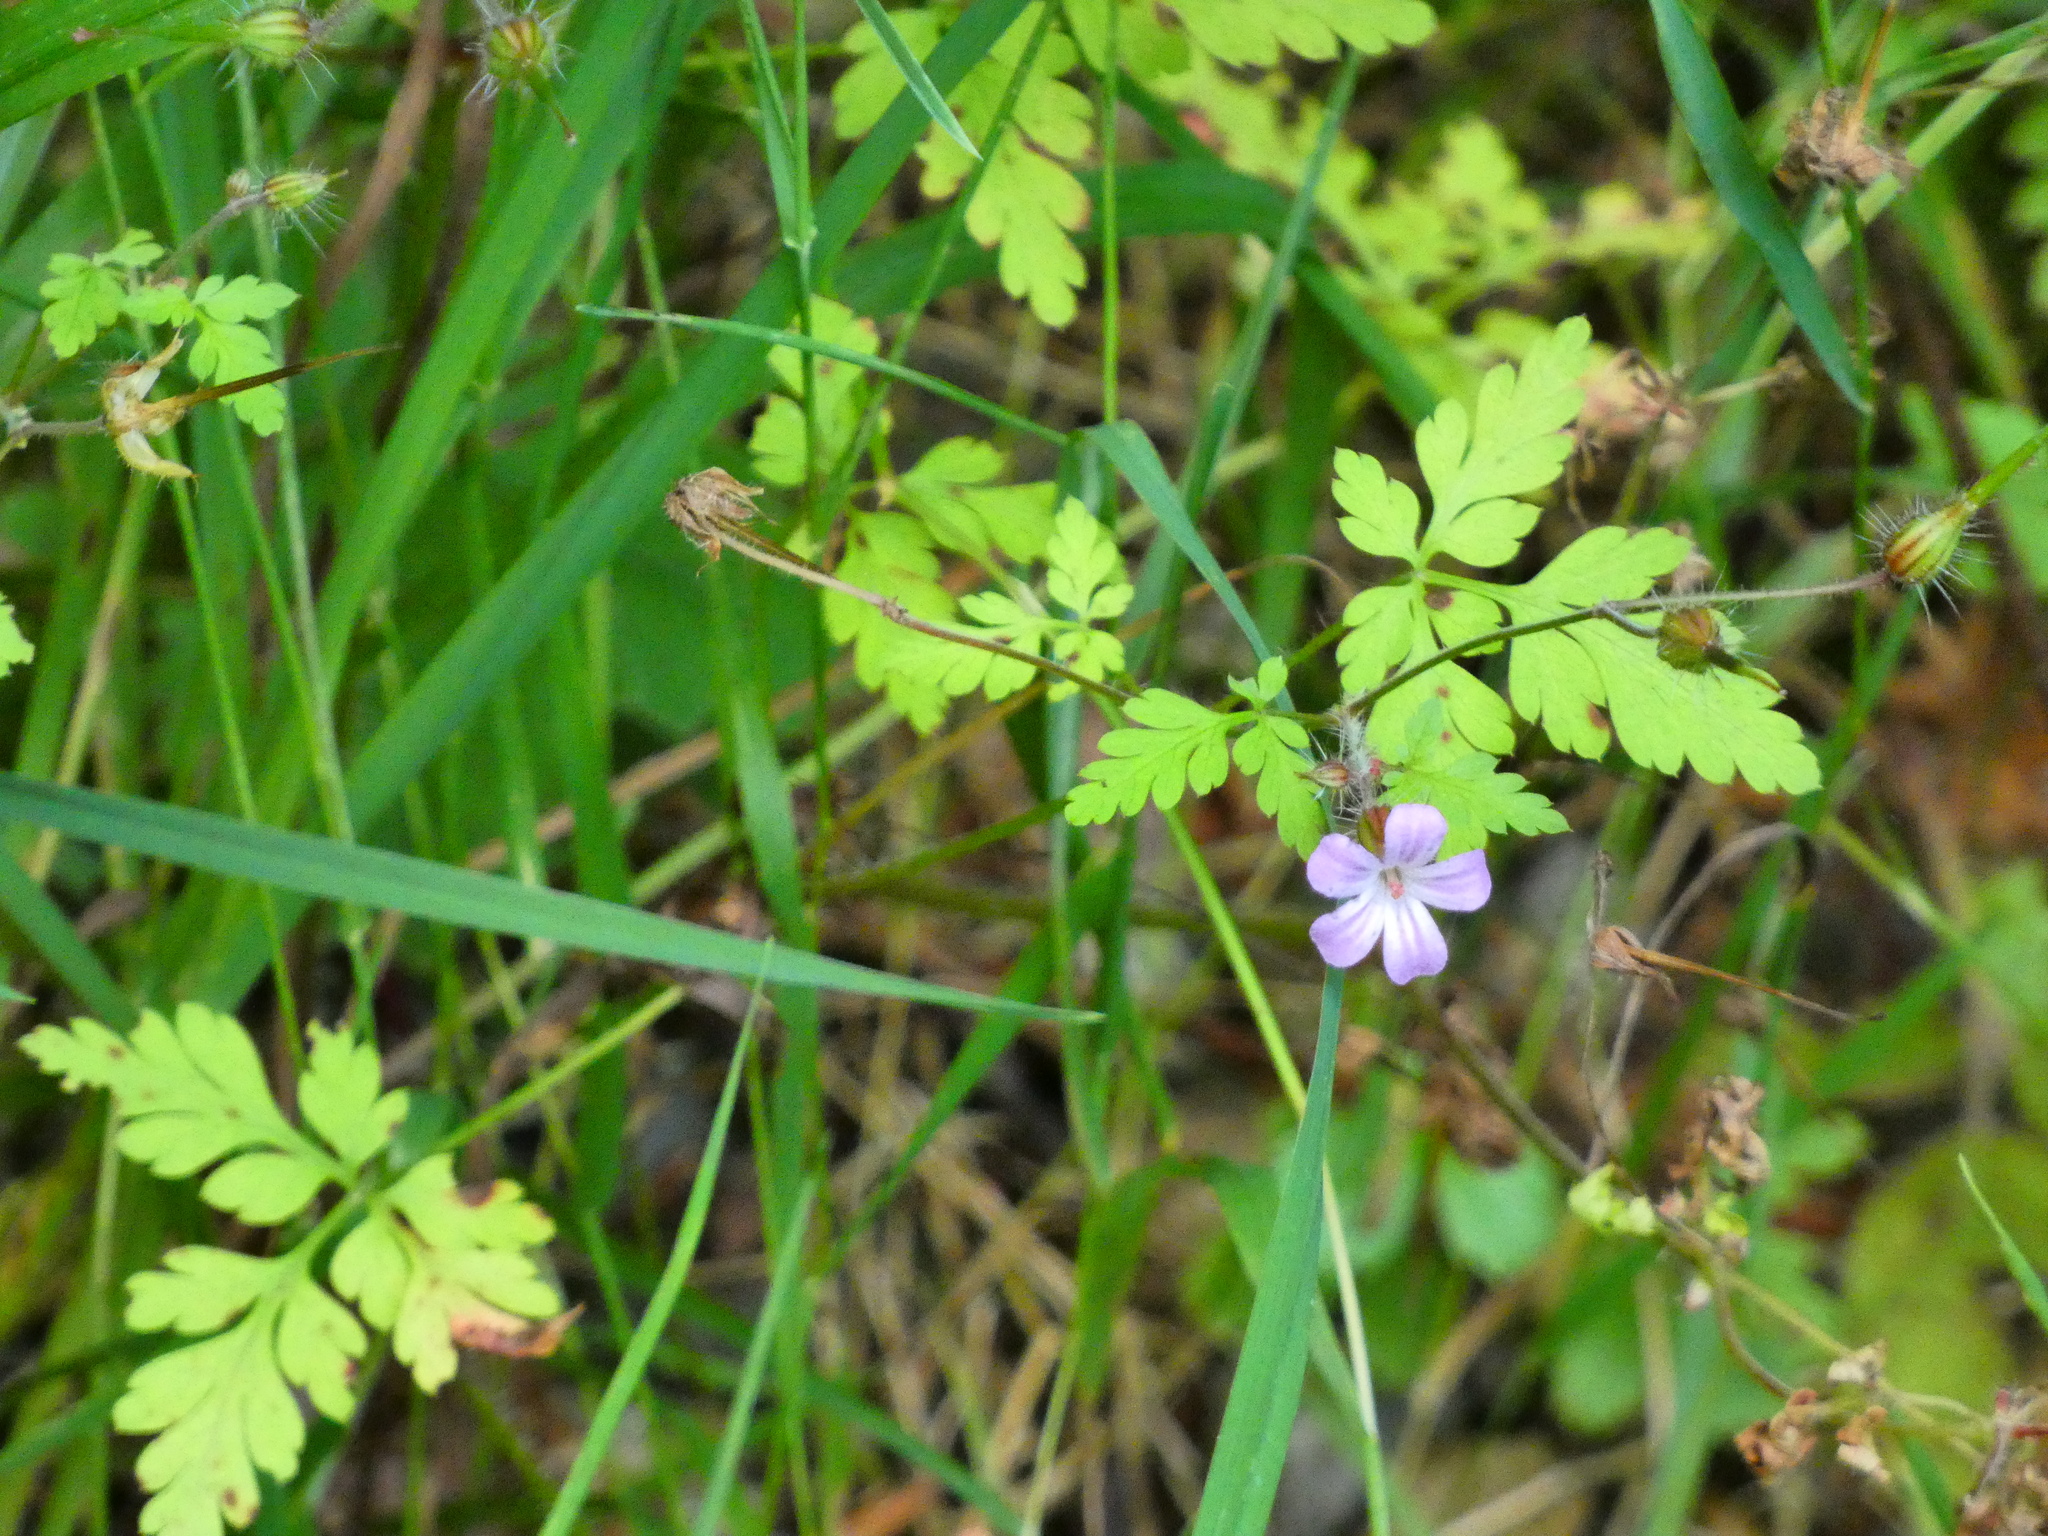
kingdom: Plantae
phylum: Tracheophyta
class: Magnoliopsida
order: Geraniales
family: Geraniaceae
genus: Geranium
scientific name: Geranium robertianum
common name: Herb-robert
